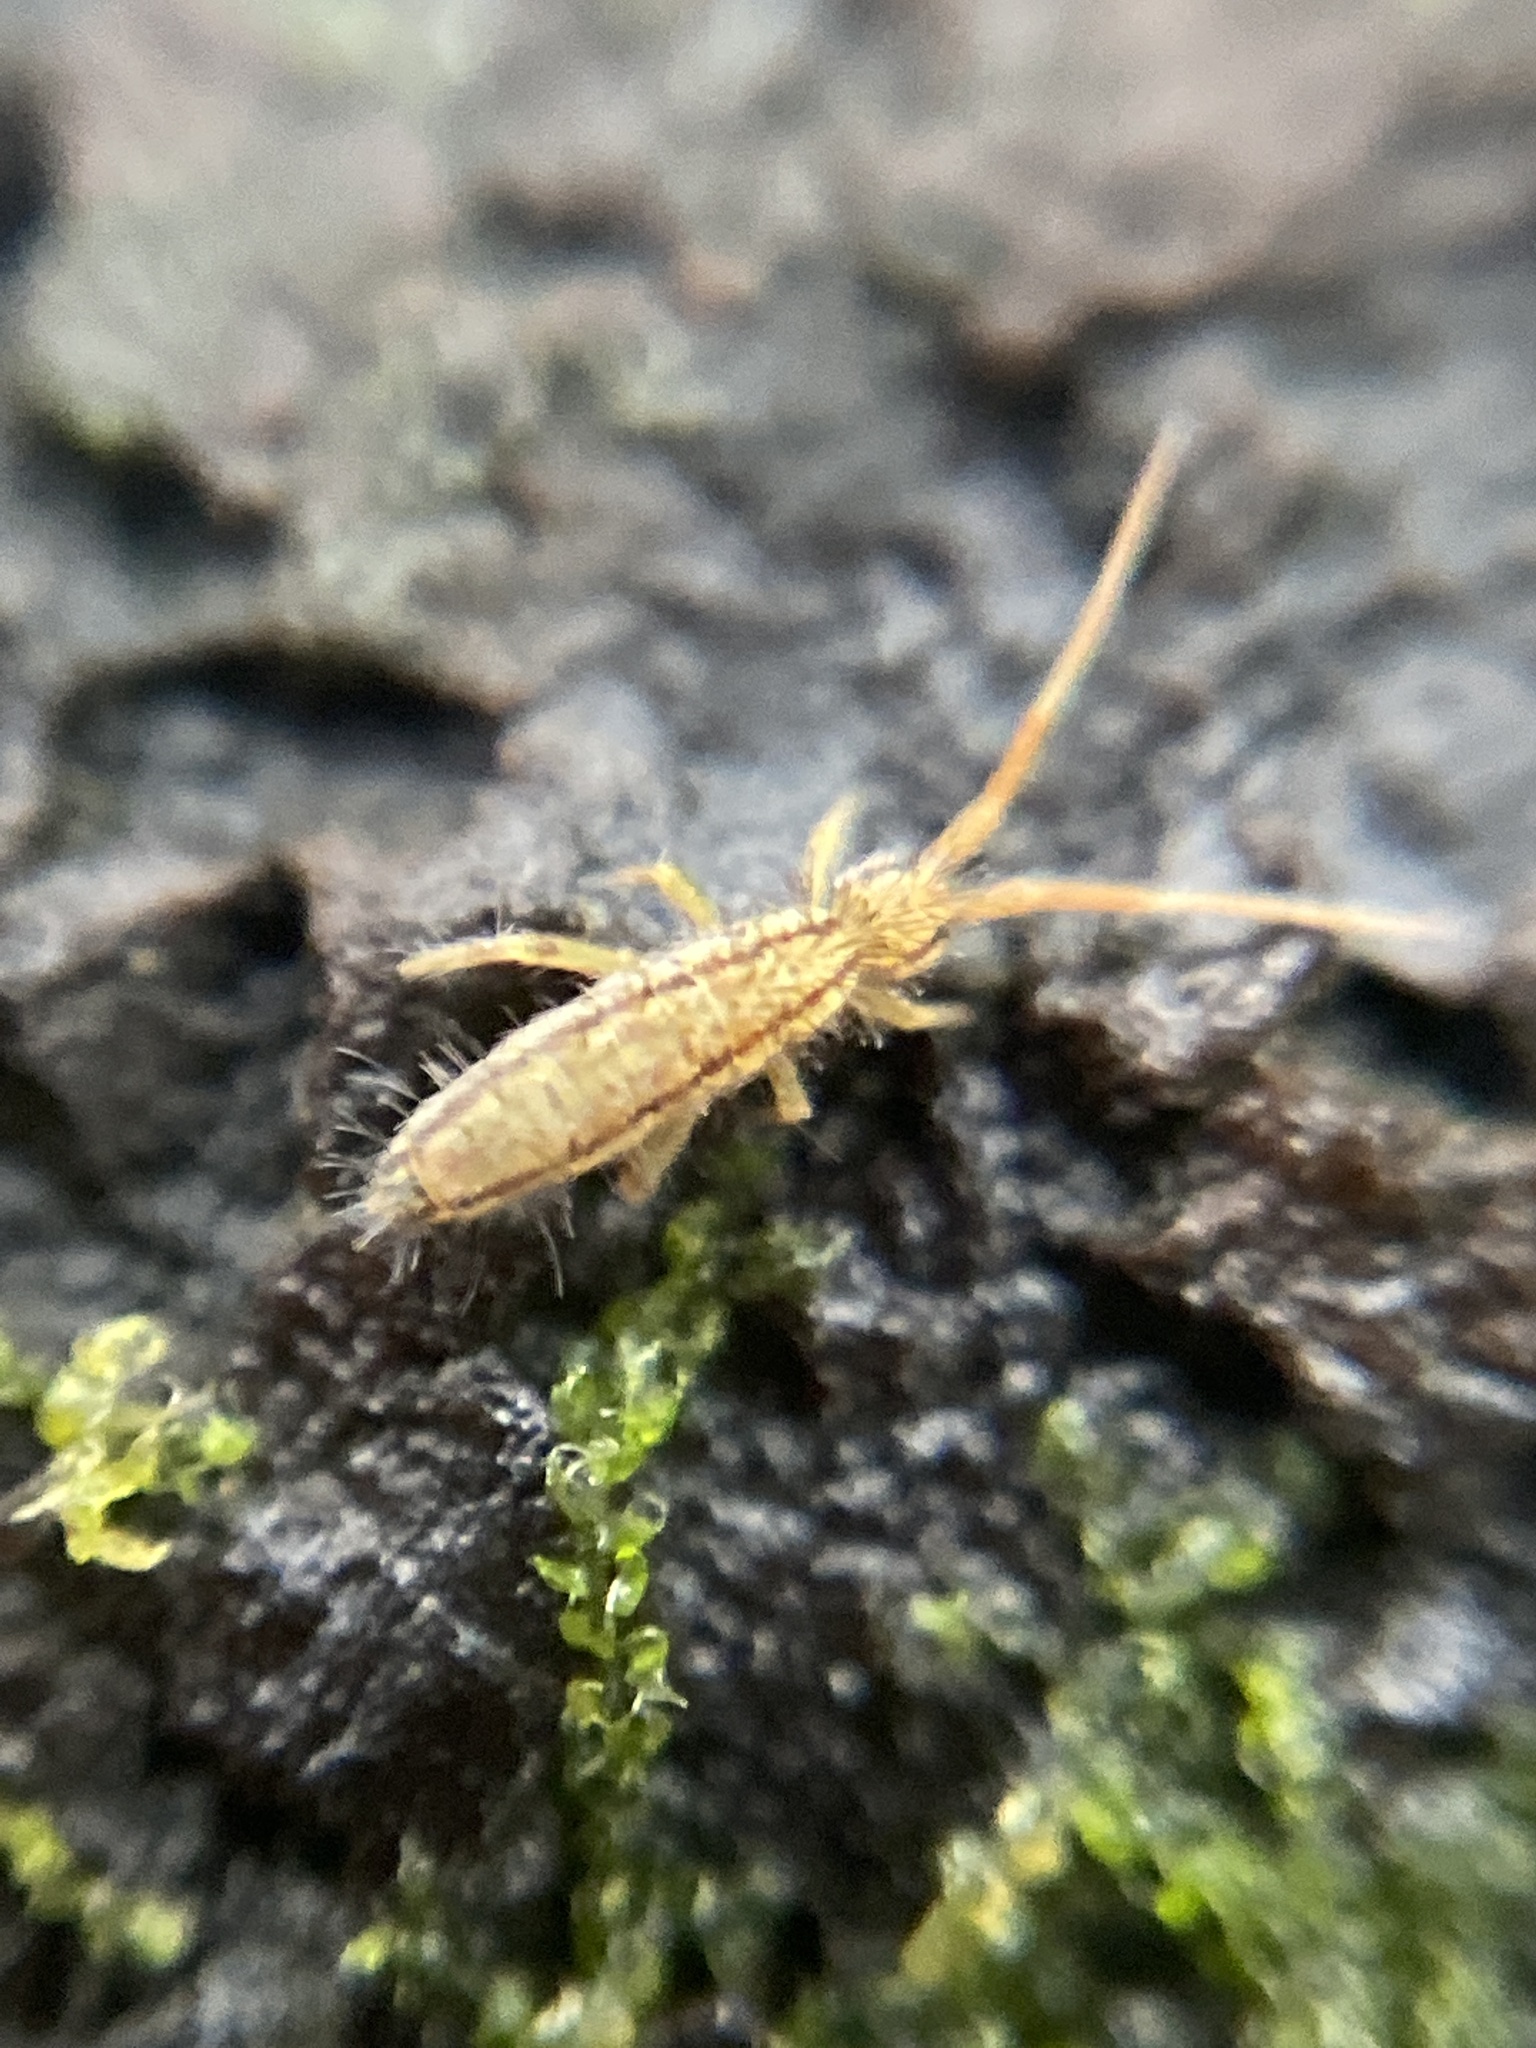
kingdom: Animalia
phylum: Arthropoda
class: Collembola
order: Entomobryomorpha
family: Entomobryidae
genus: Entomobrya
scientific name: Entomobrya nivalis
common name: Cosmopolitan springtail
